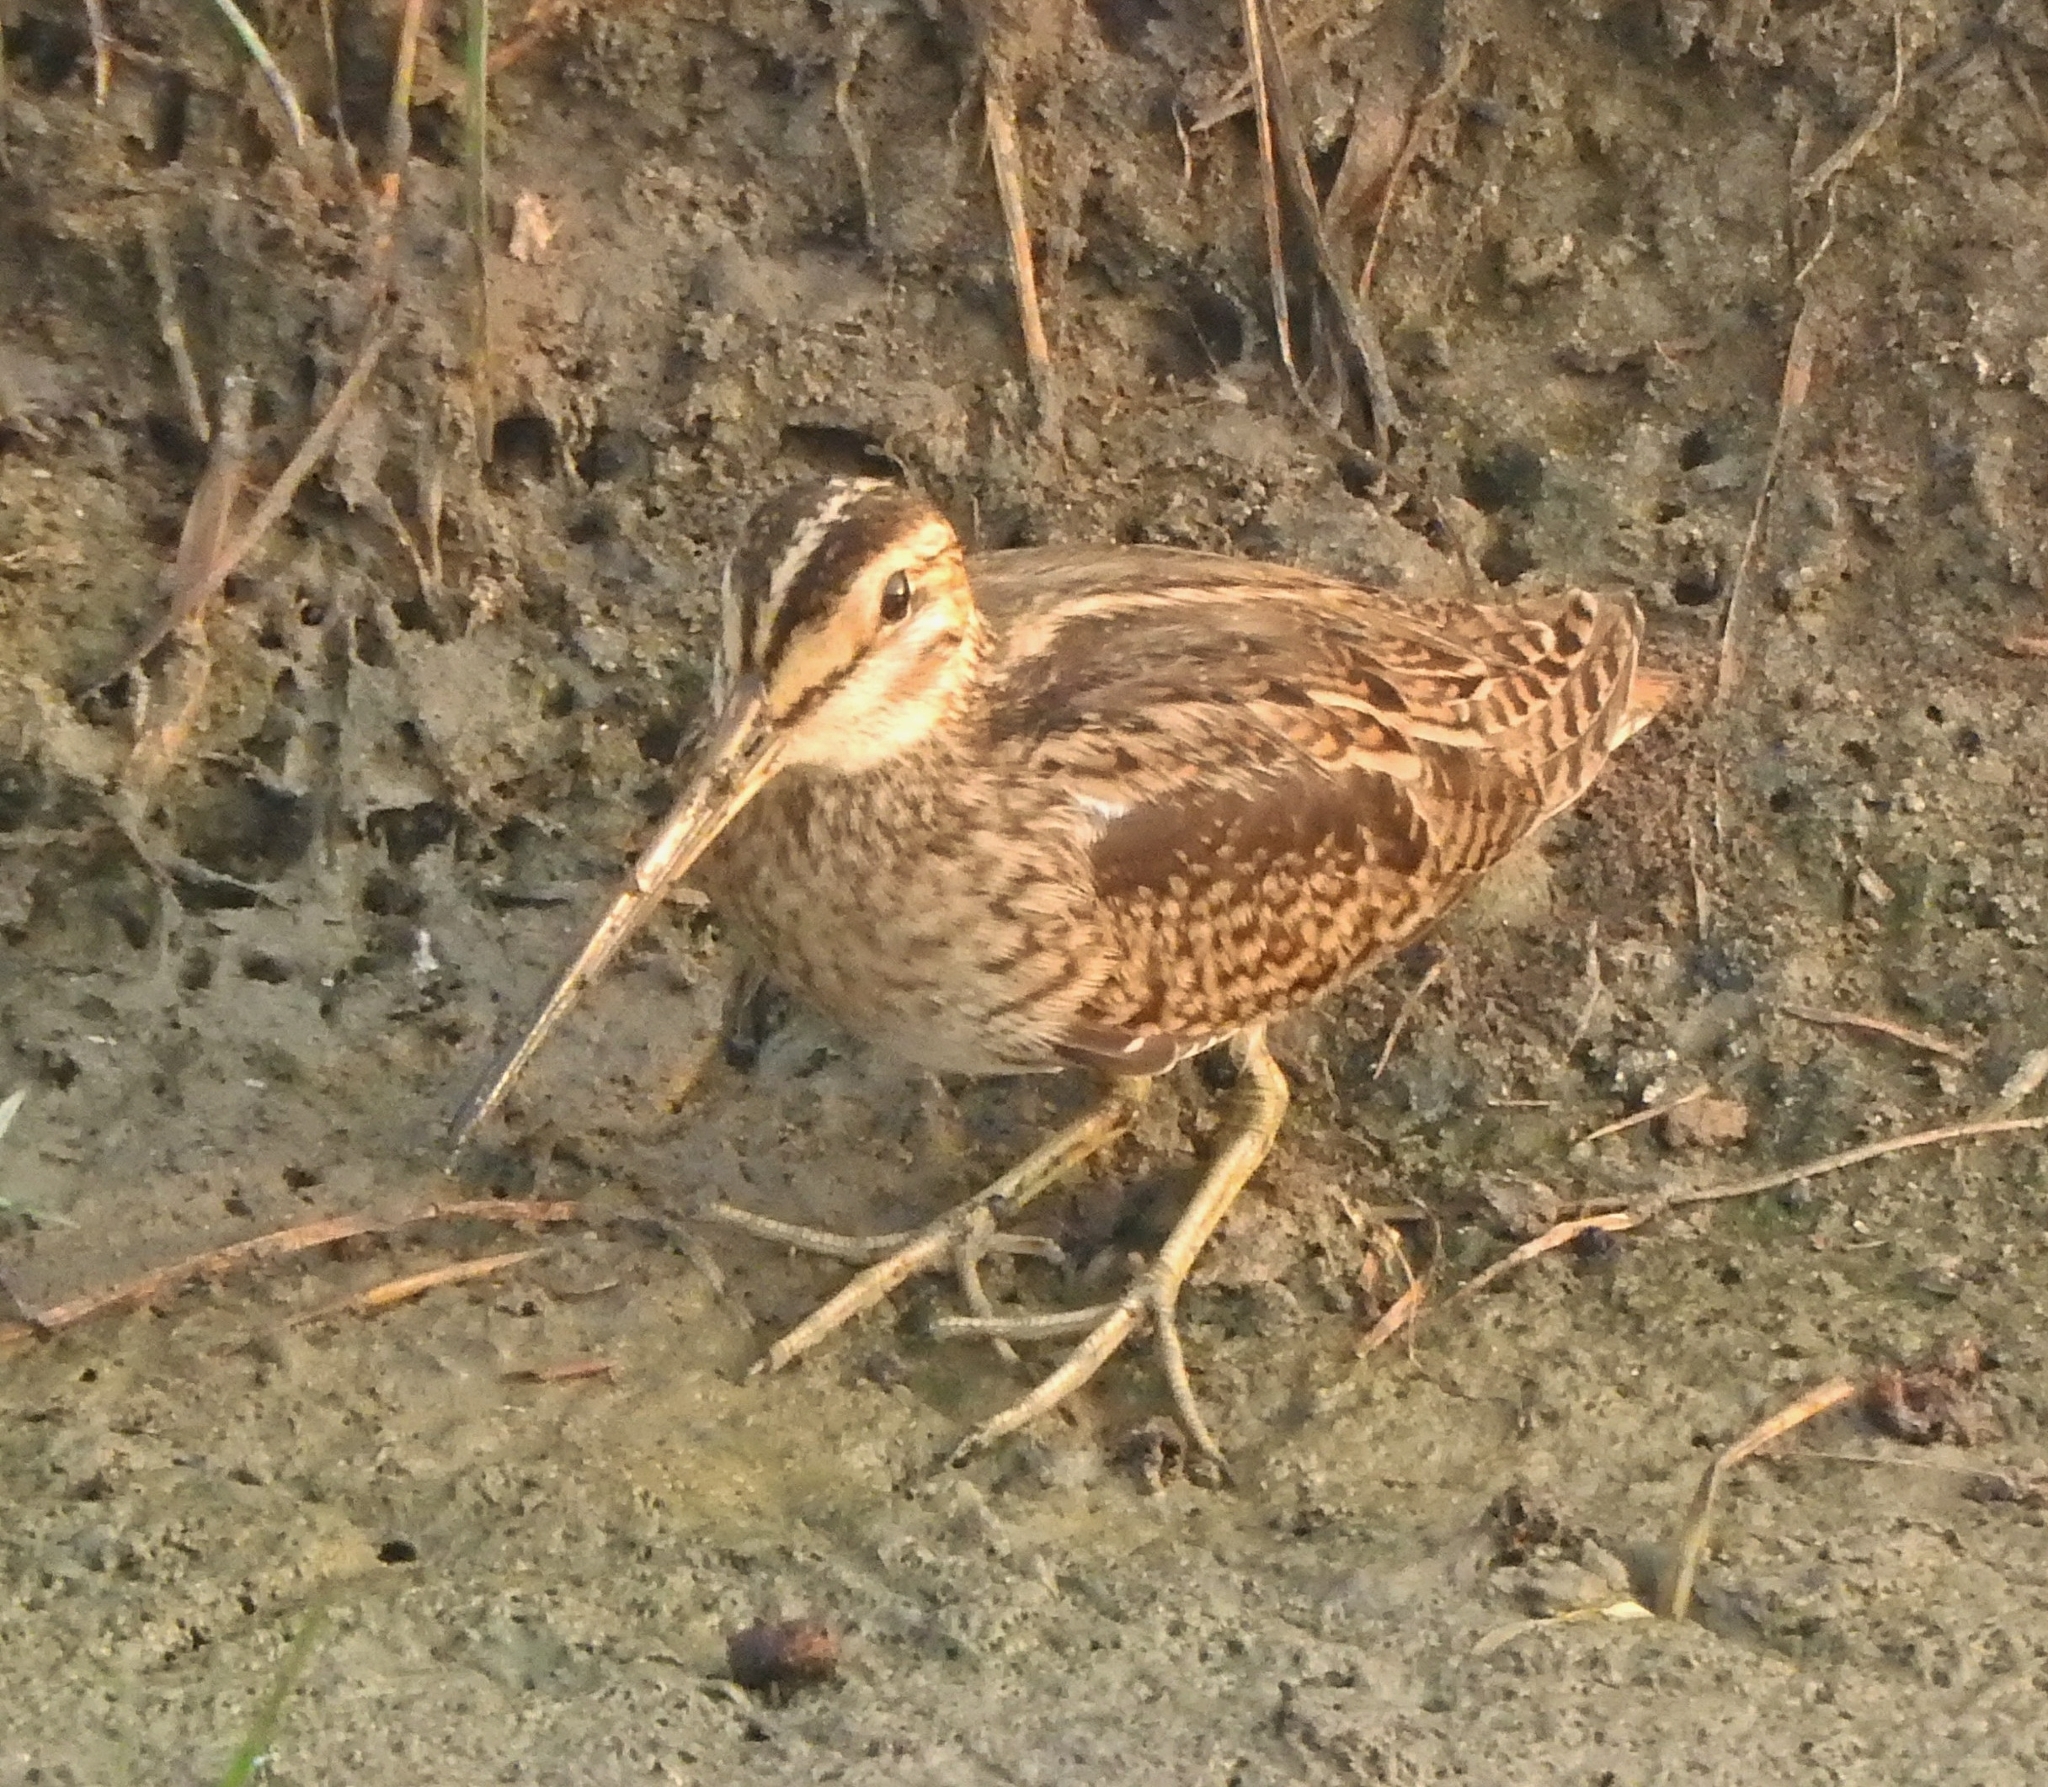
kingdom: Animalia
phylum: Chordata
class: Aves
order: Charadriiformes
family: Scolopacidae
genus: Gallinago
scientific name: Gallinago stenura
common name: Pin-tailed snipe
